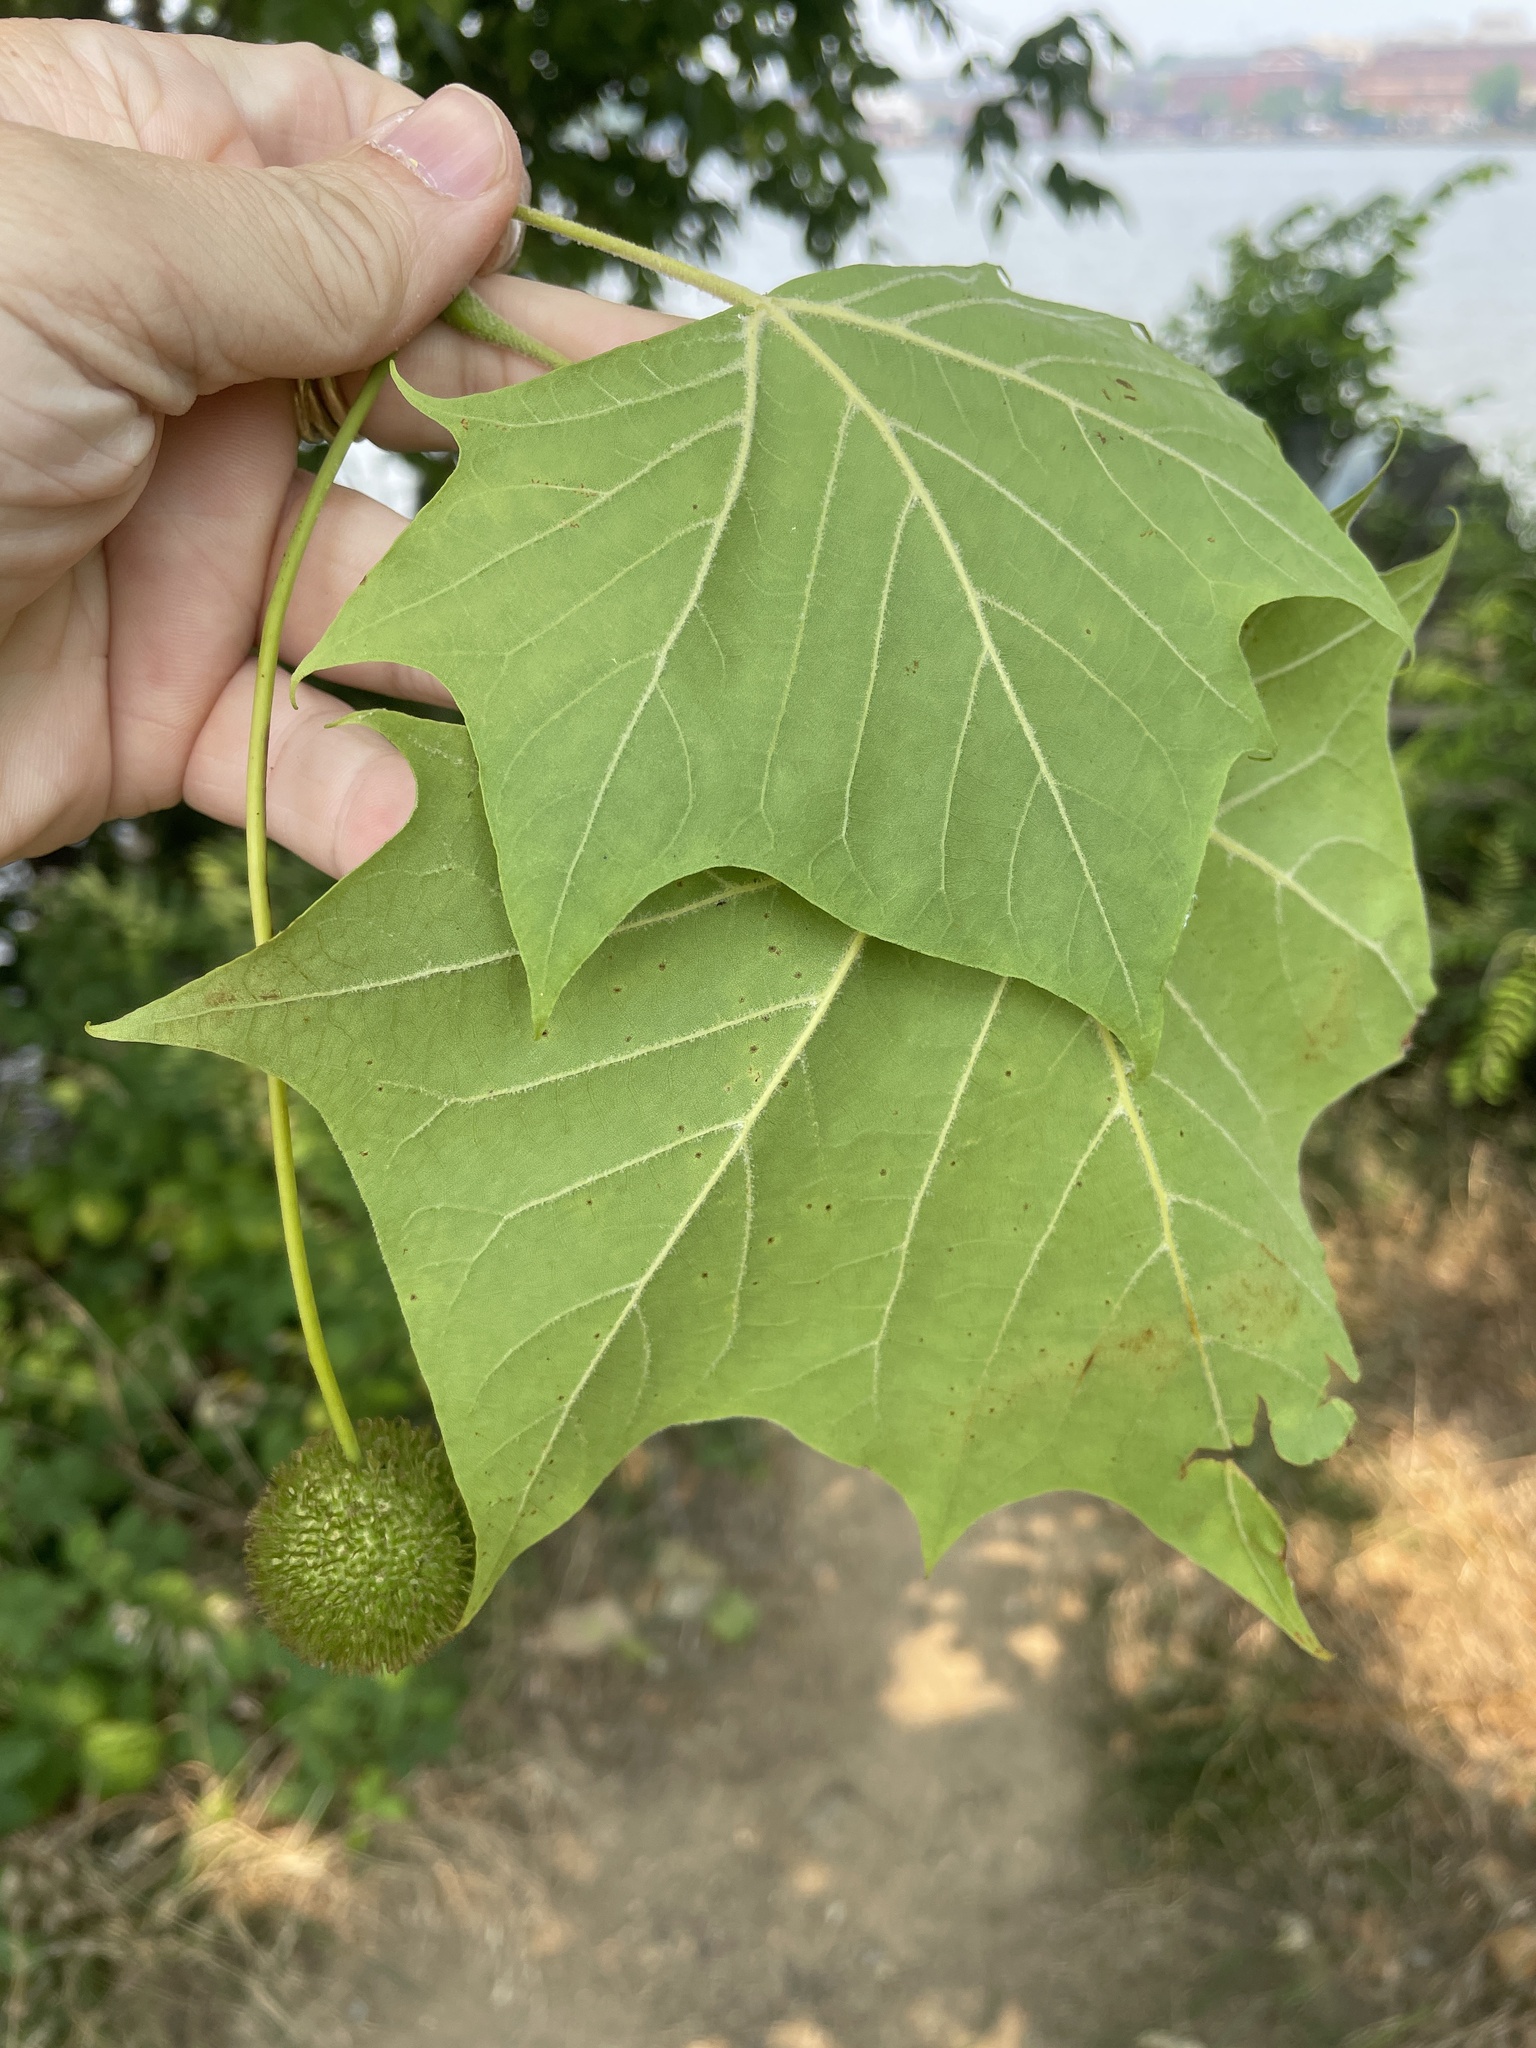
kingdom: Plantae
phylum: Tracheophyta
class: Magnoliopsida
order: Proteales
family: Platanaceae
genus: Platanus
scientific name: Platanus occidentalis
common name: American sycamore
